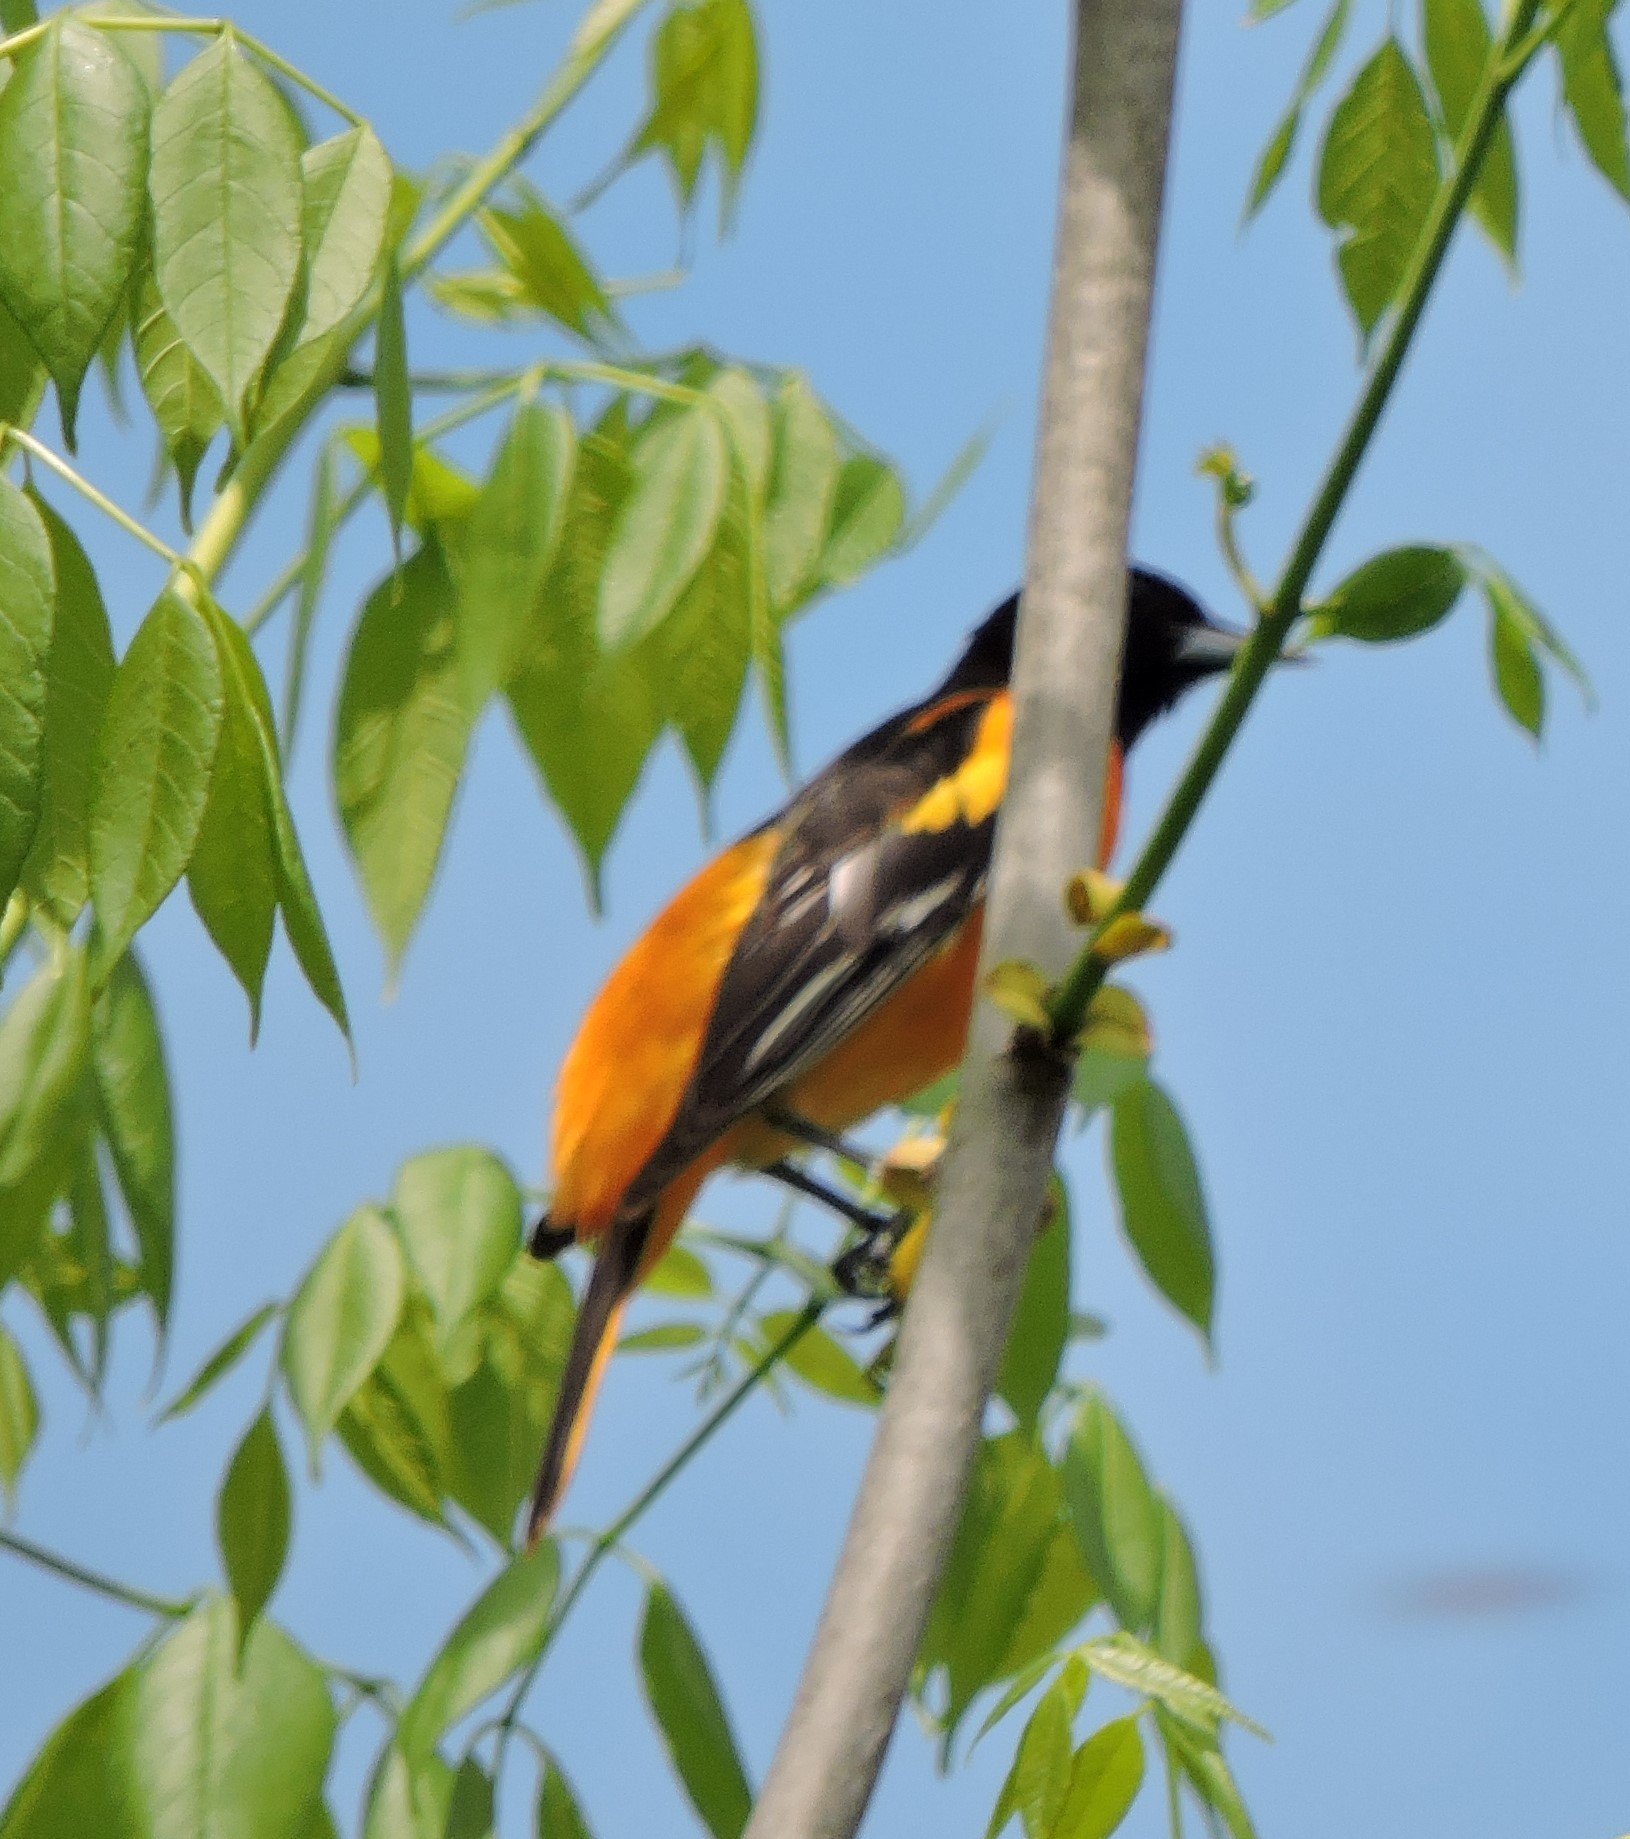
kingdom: Animalia
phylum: Chordata
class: Aves
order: Passeriformes
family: Icteridae
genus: Icterus
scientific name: Icterus galbula
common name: Baltimore oriole
